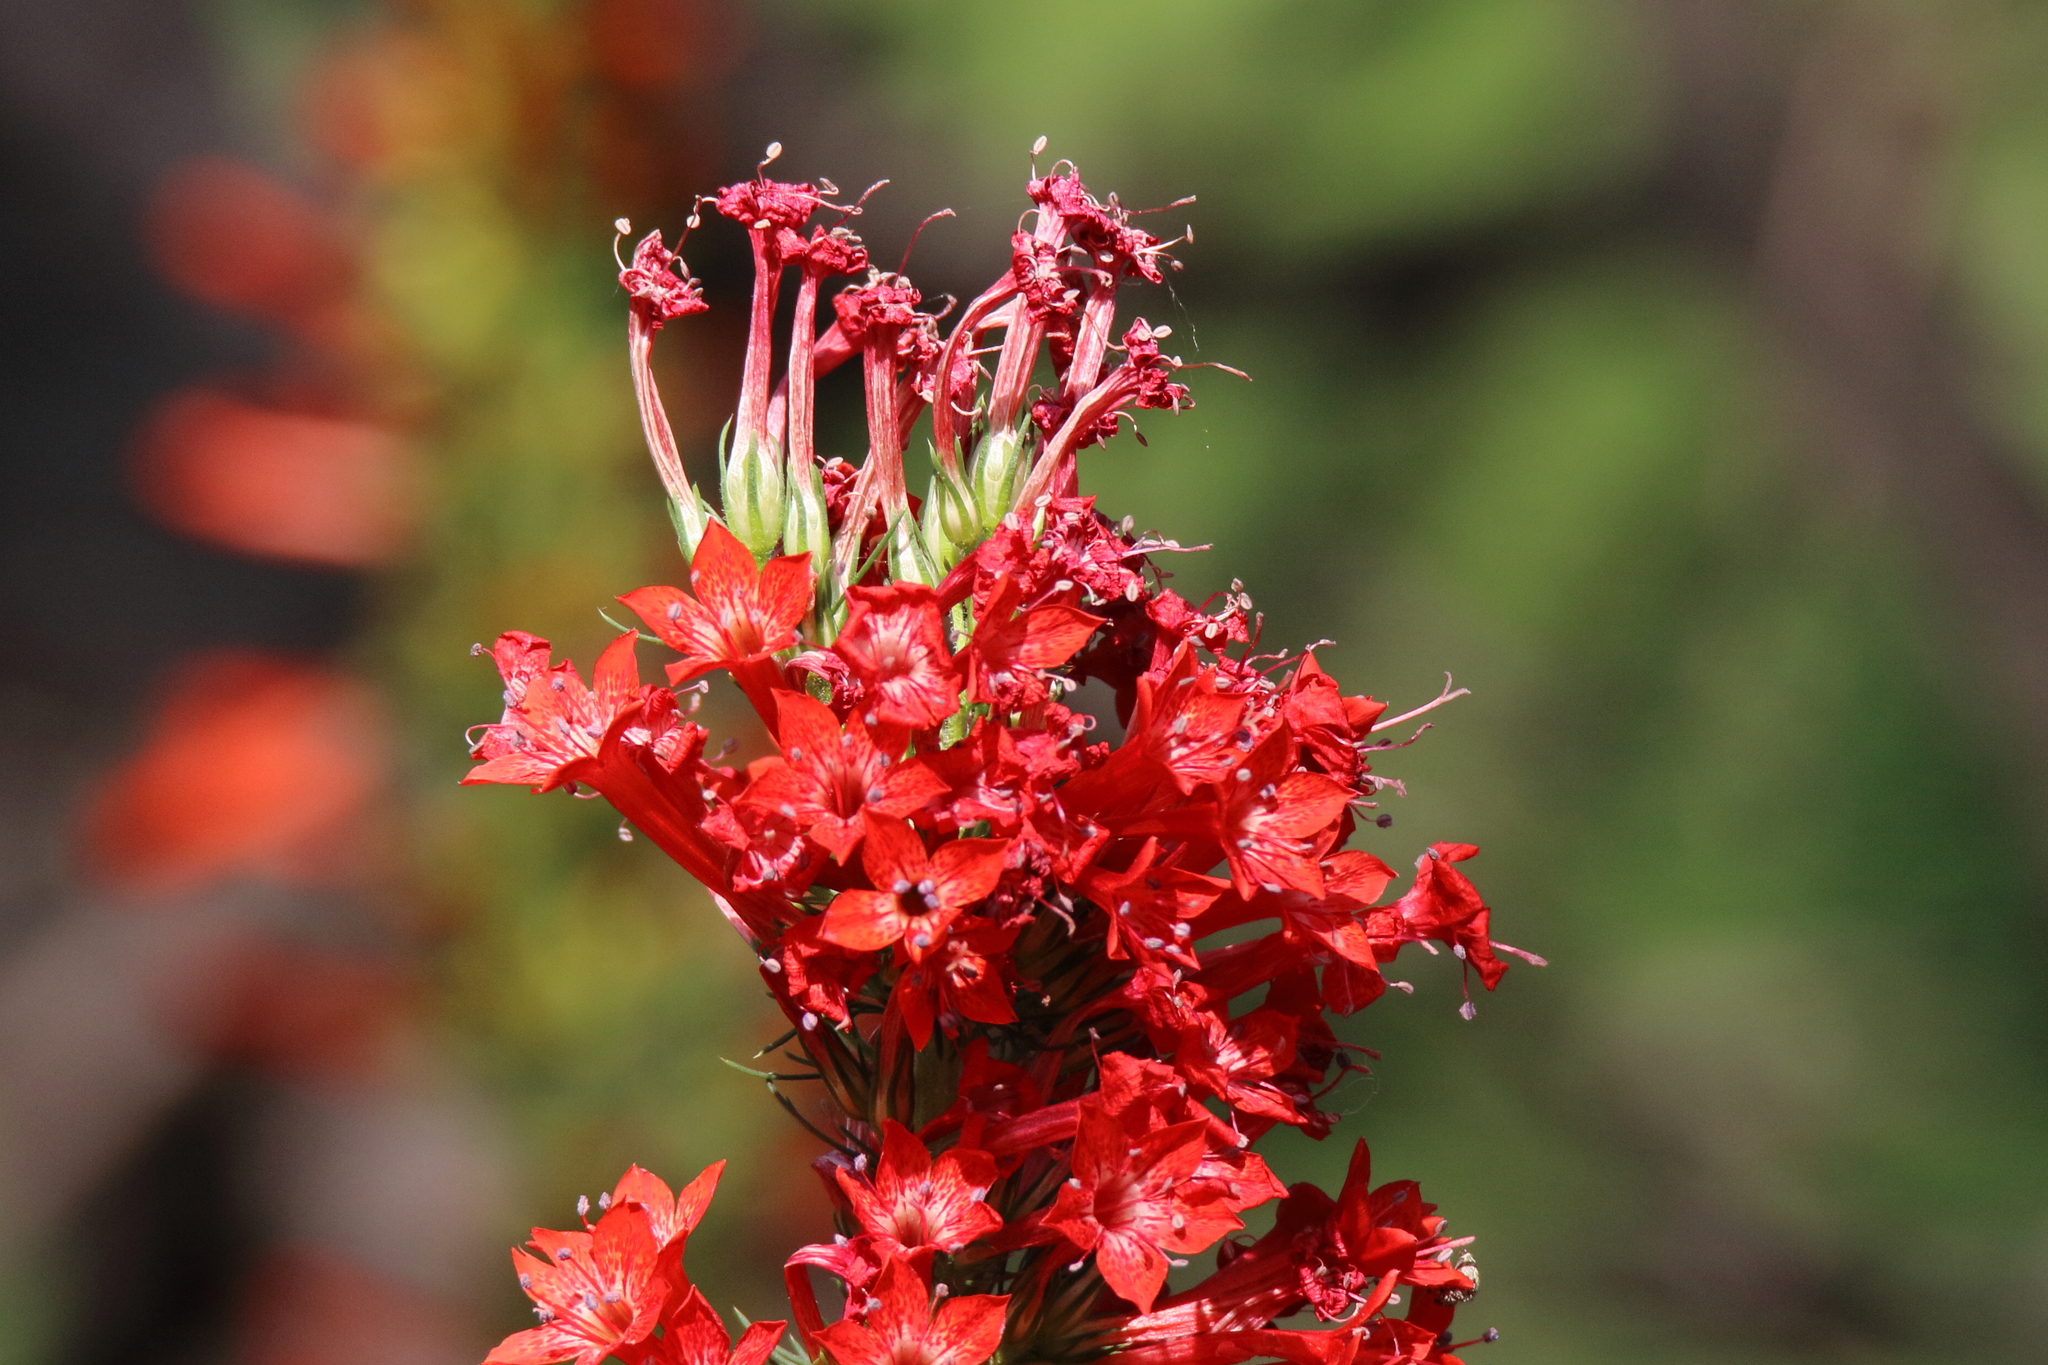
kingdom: Plantae
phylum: Tracheophyta
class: Magnoliopsida
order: Ericales
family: Polemoniaceae
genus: Ipomopsis
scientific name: Ipomopsis rubra
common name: Skyrocket
